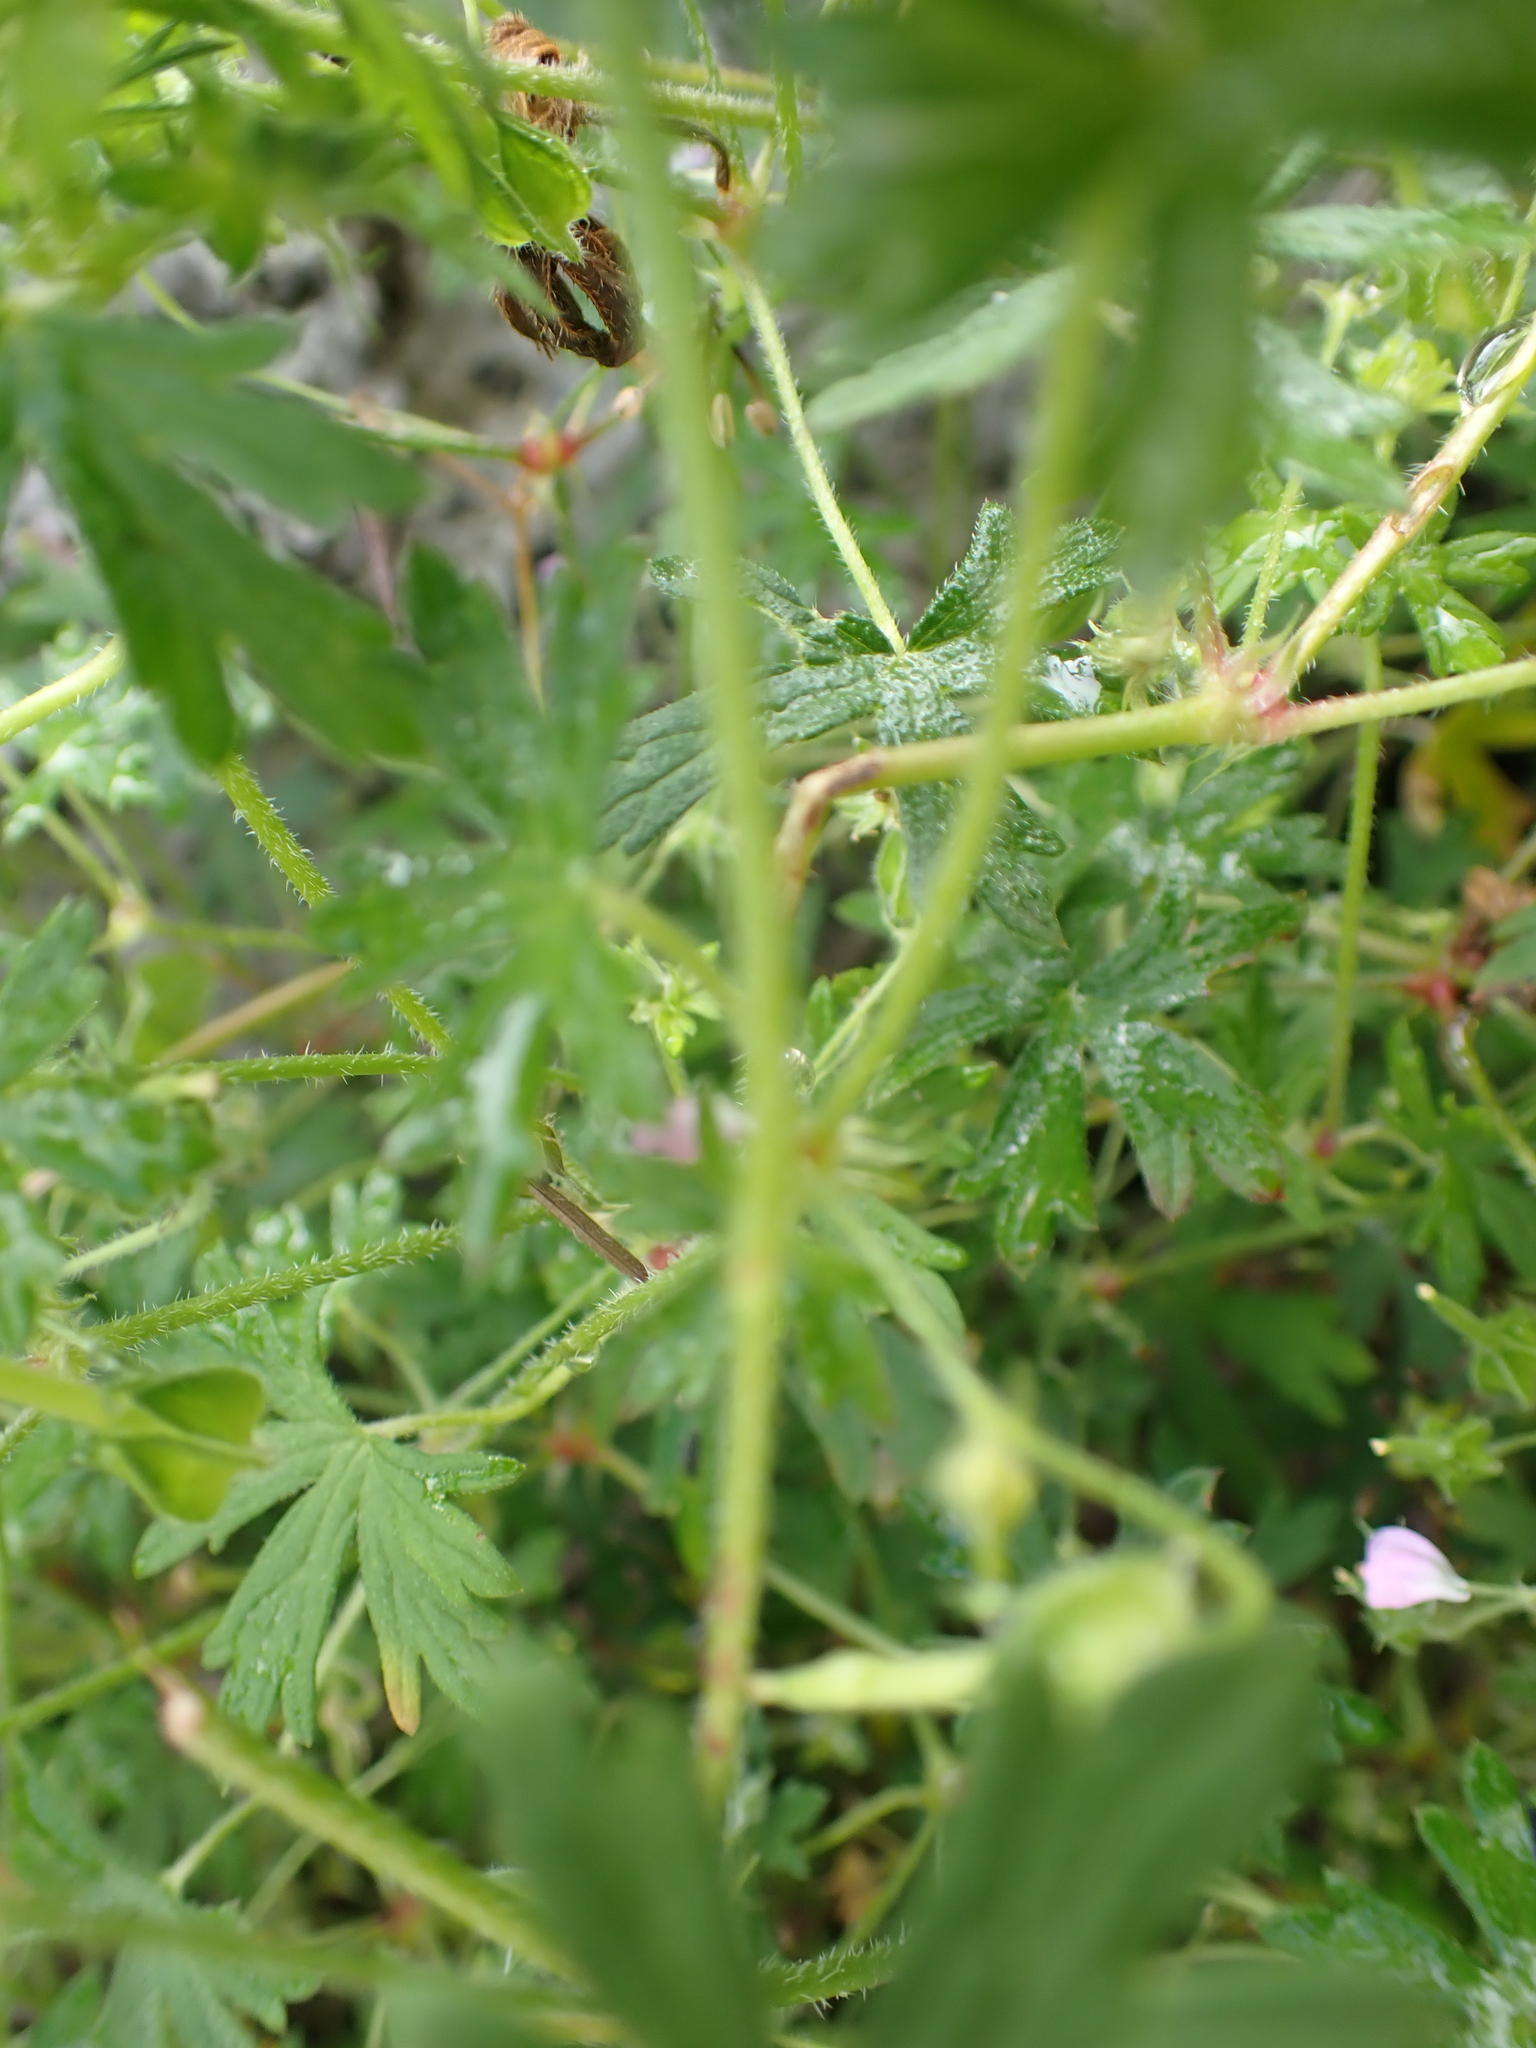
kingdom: Plantae
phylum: Tracheophyta
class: Magnoliopsida
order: Geraniales
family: Geraniaceae
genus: Geranium
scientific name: Geranium gardneri
